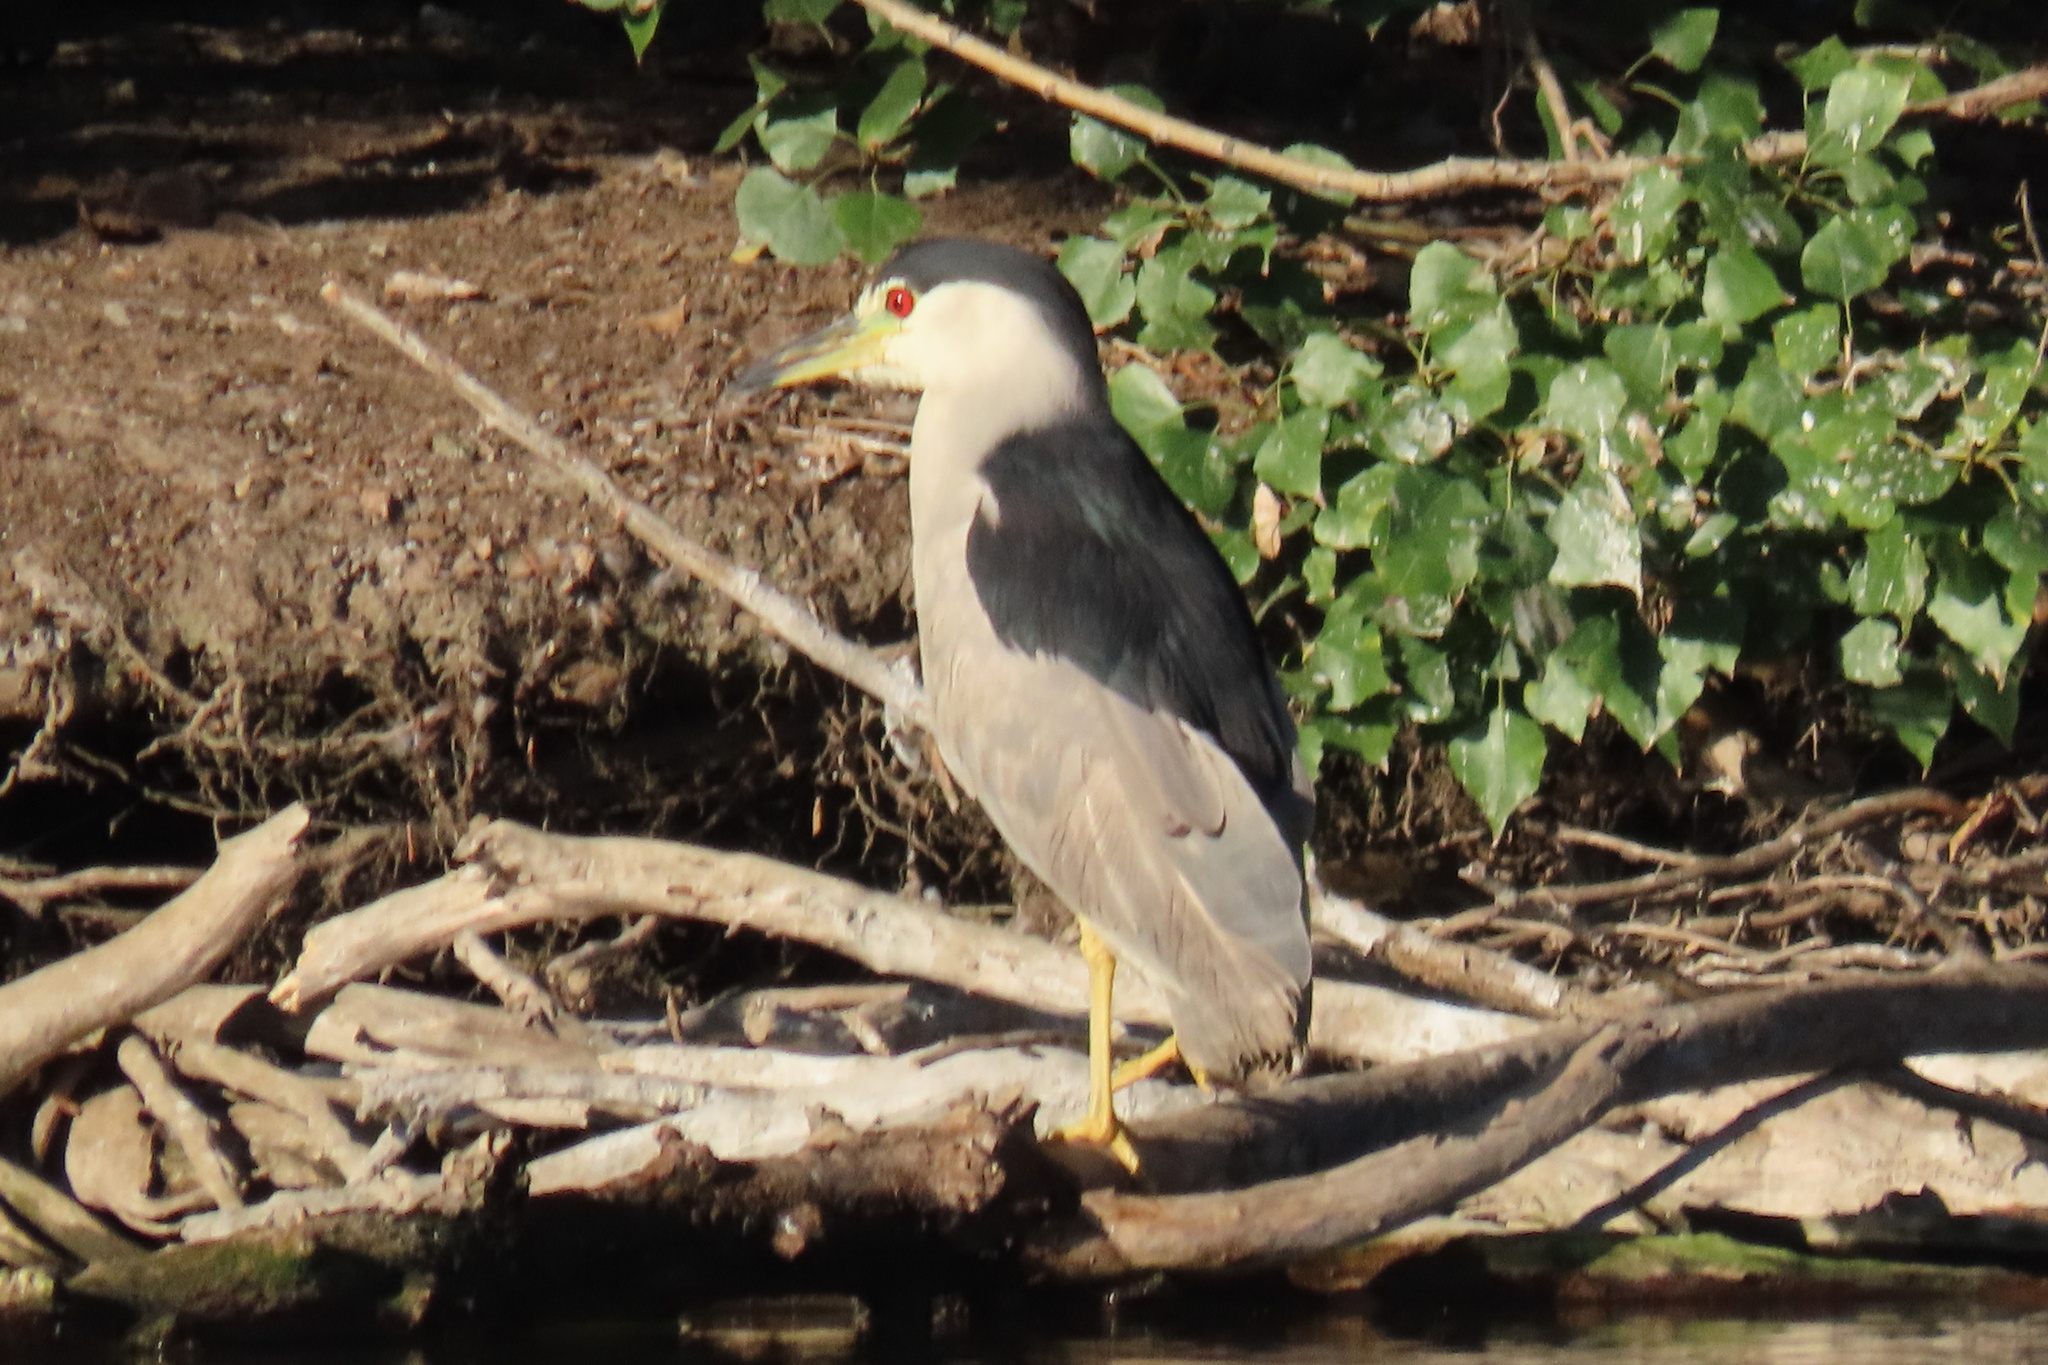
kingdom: Animalia
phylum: Chordata
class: Aves
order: Pelecaniformes
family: Ardeidae
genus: Nycticorax
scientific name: Nycticorax nycticorax
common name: Black-crowned night heron
